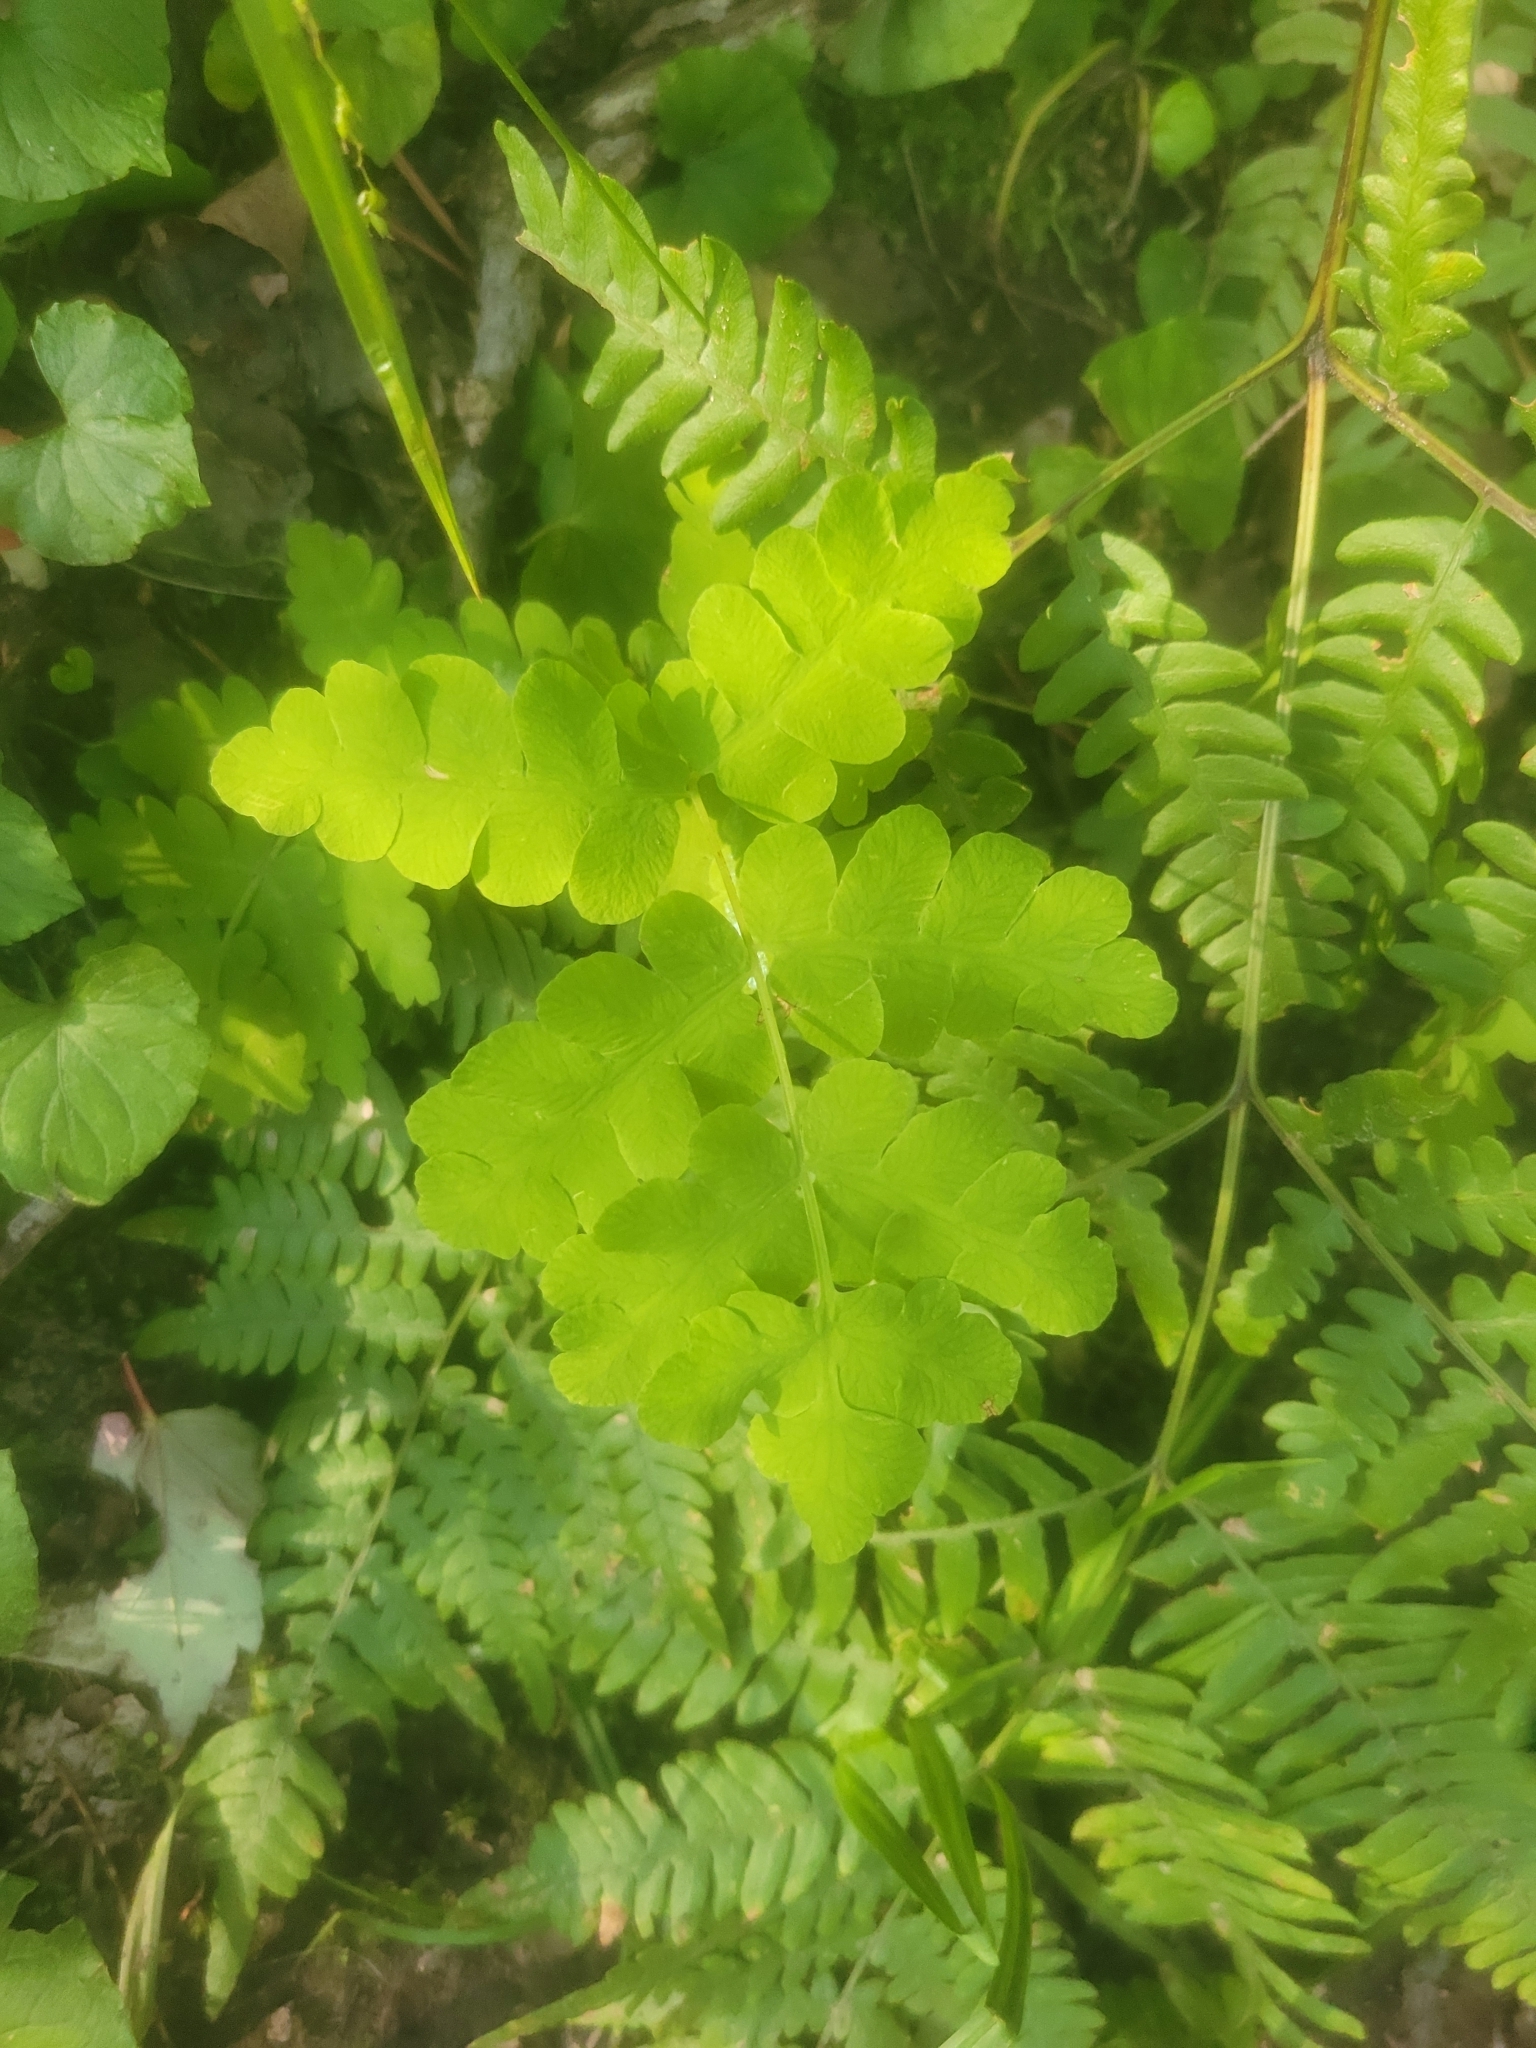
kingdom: Plantae
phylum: Tracheophyta
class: Polypodiopsida
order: Osmundales
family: Osmundaceae
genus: Claytosmunda
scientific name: Claytosmunda claytoniana
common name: Clayton's fern
